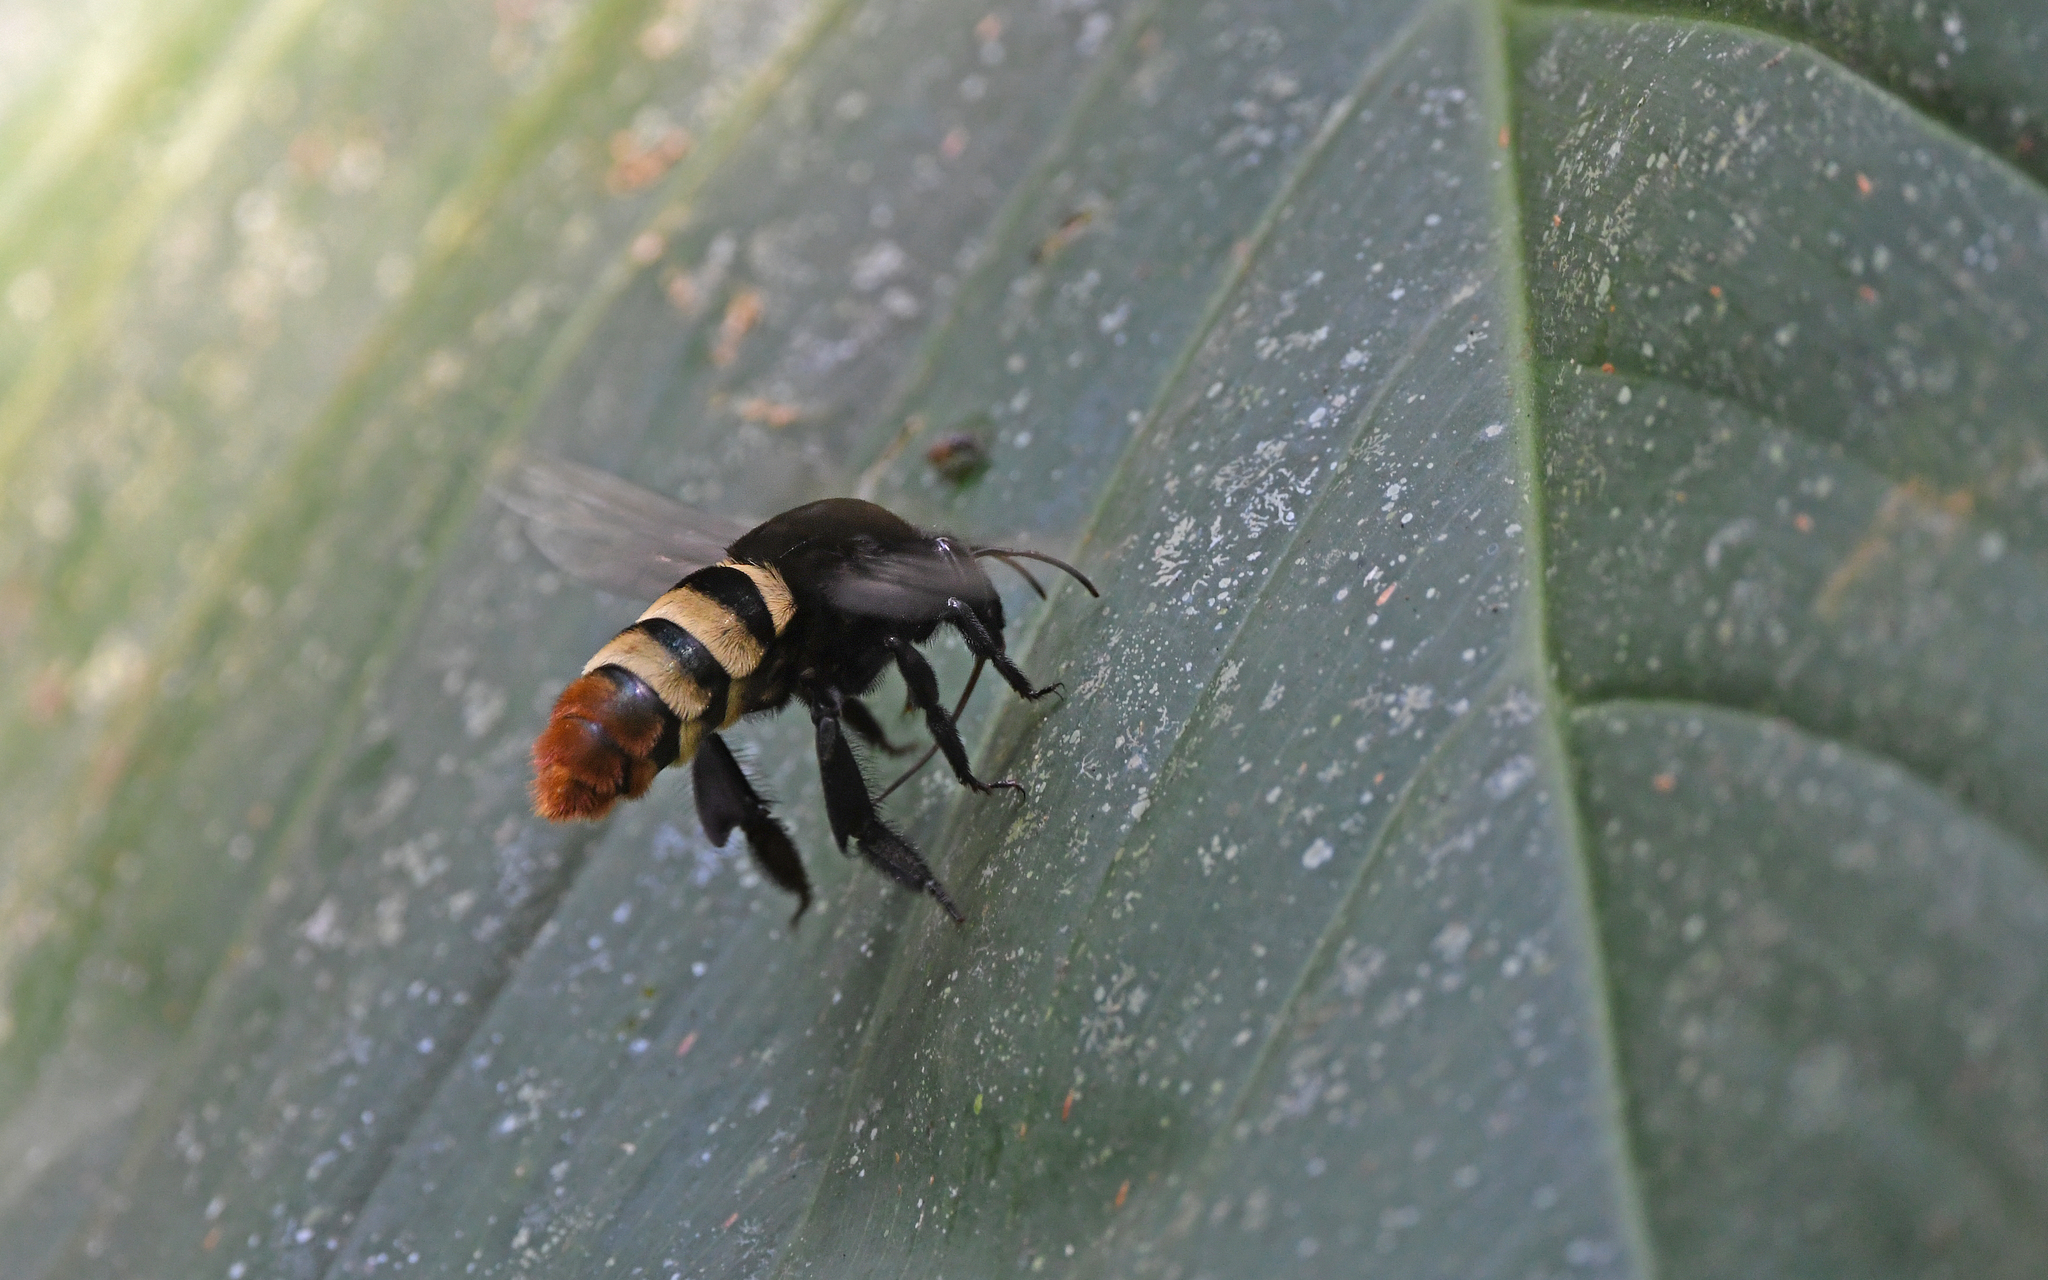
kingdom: Animalia
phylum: Arthropoda
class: Insecta
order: Hymenoptera
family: Apidae
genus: Eulaema
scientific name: Eulaema meriana
